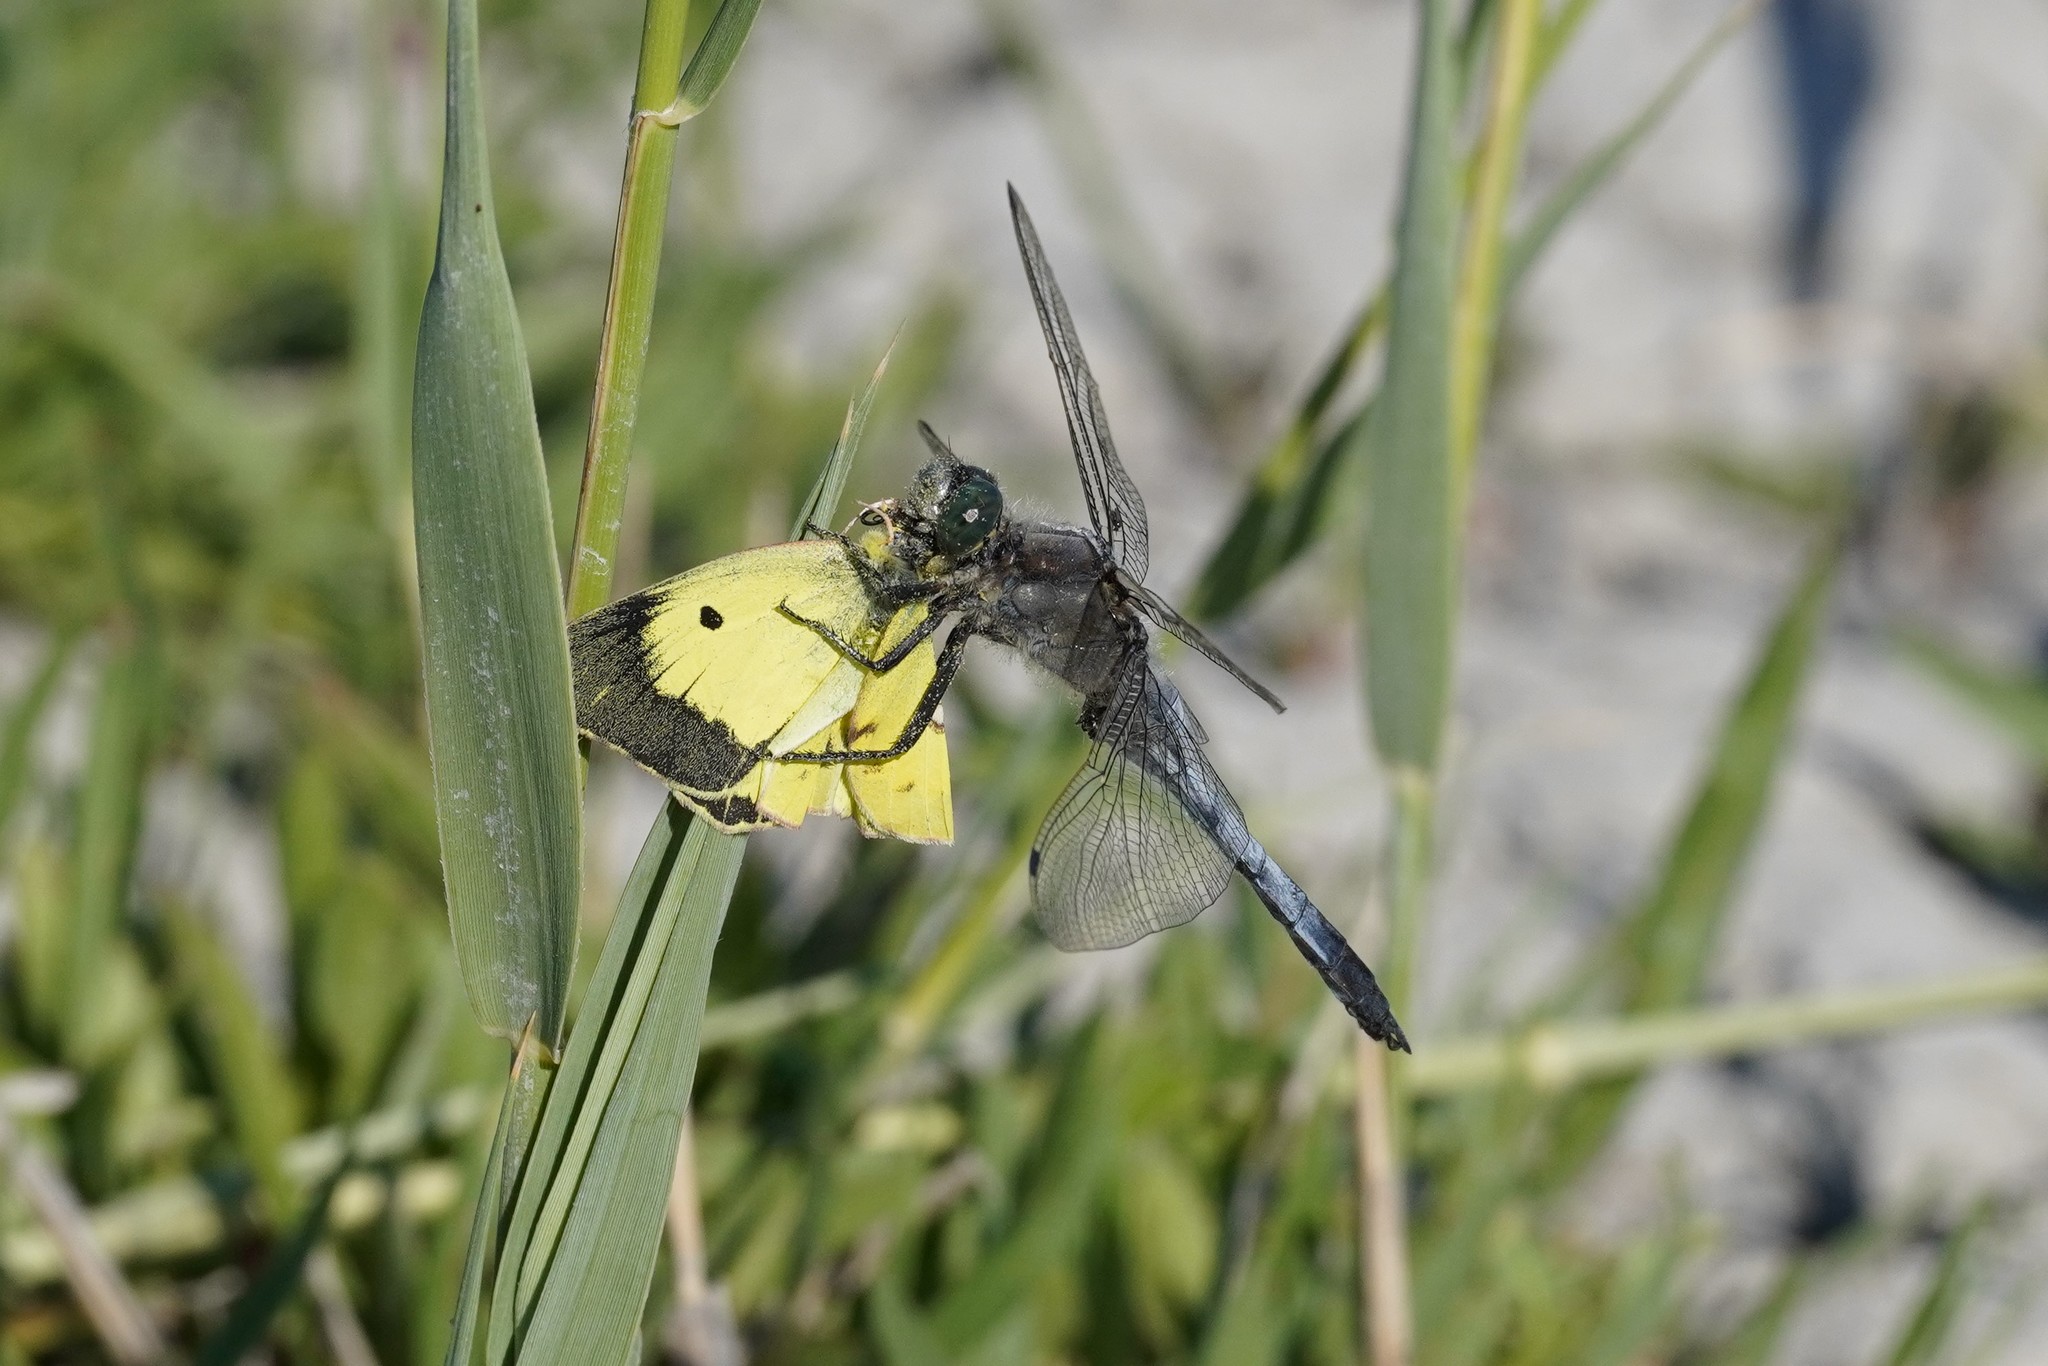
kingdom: Animalia
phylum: Arthropoda
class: Insecta
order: Lepidoptera
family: Pieridae
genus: Colias
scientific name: Colias erate
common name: Eastern pale clouded yellow
